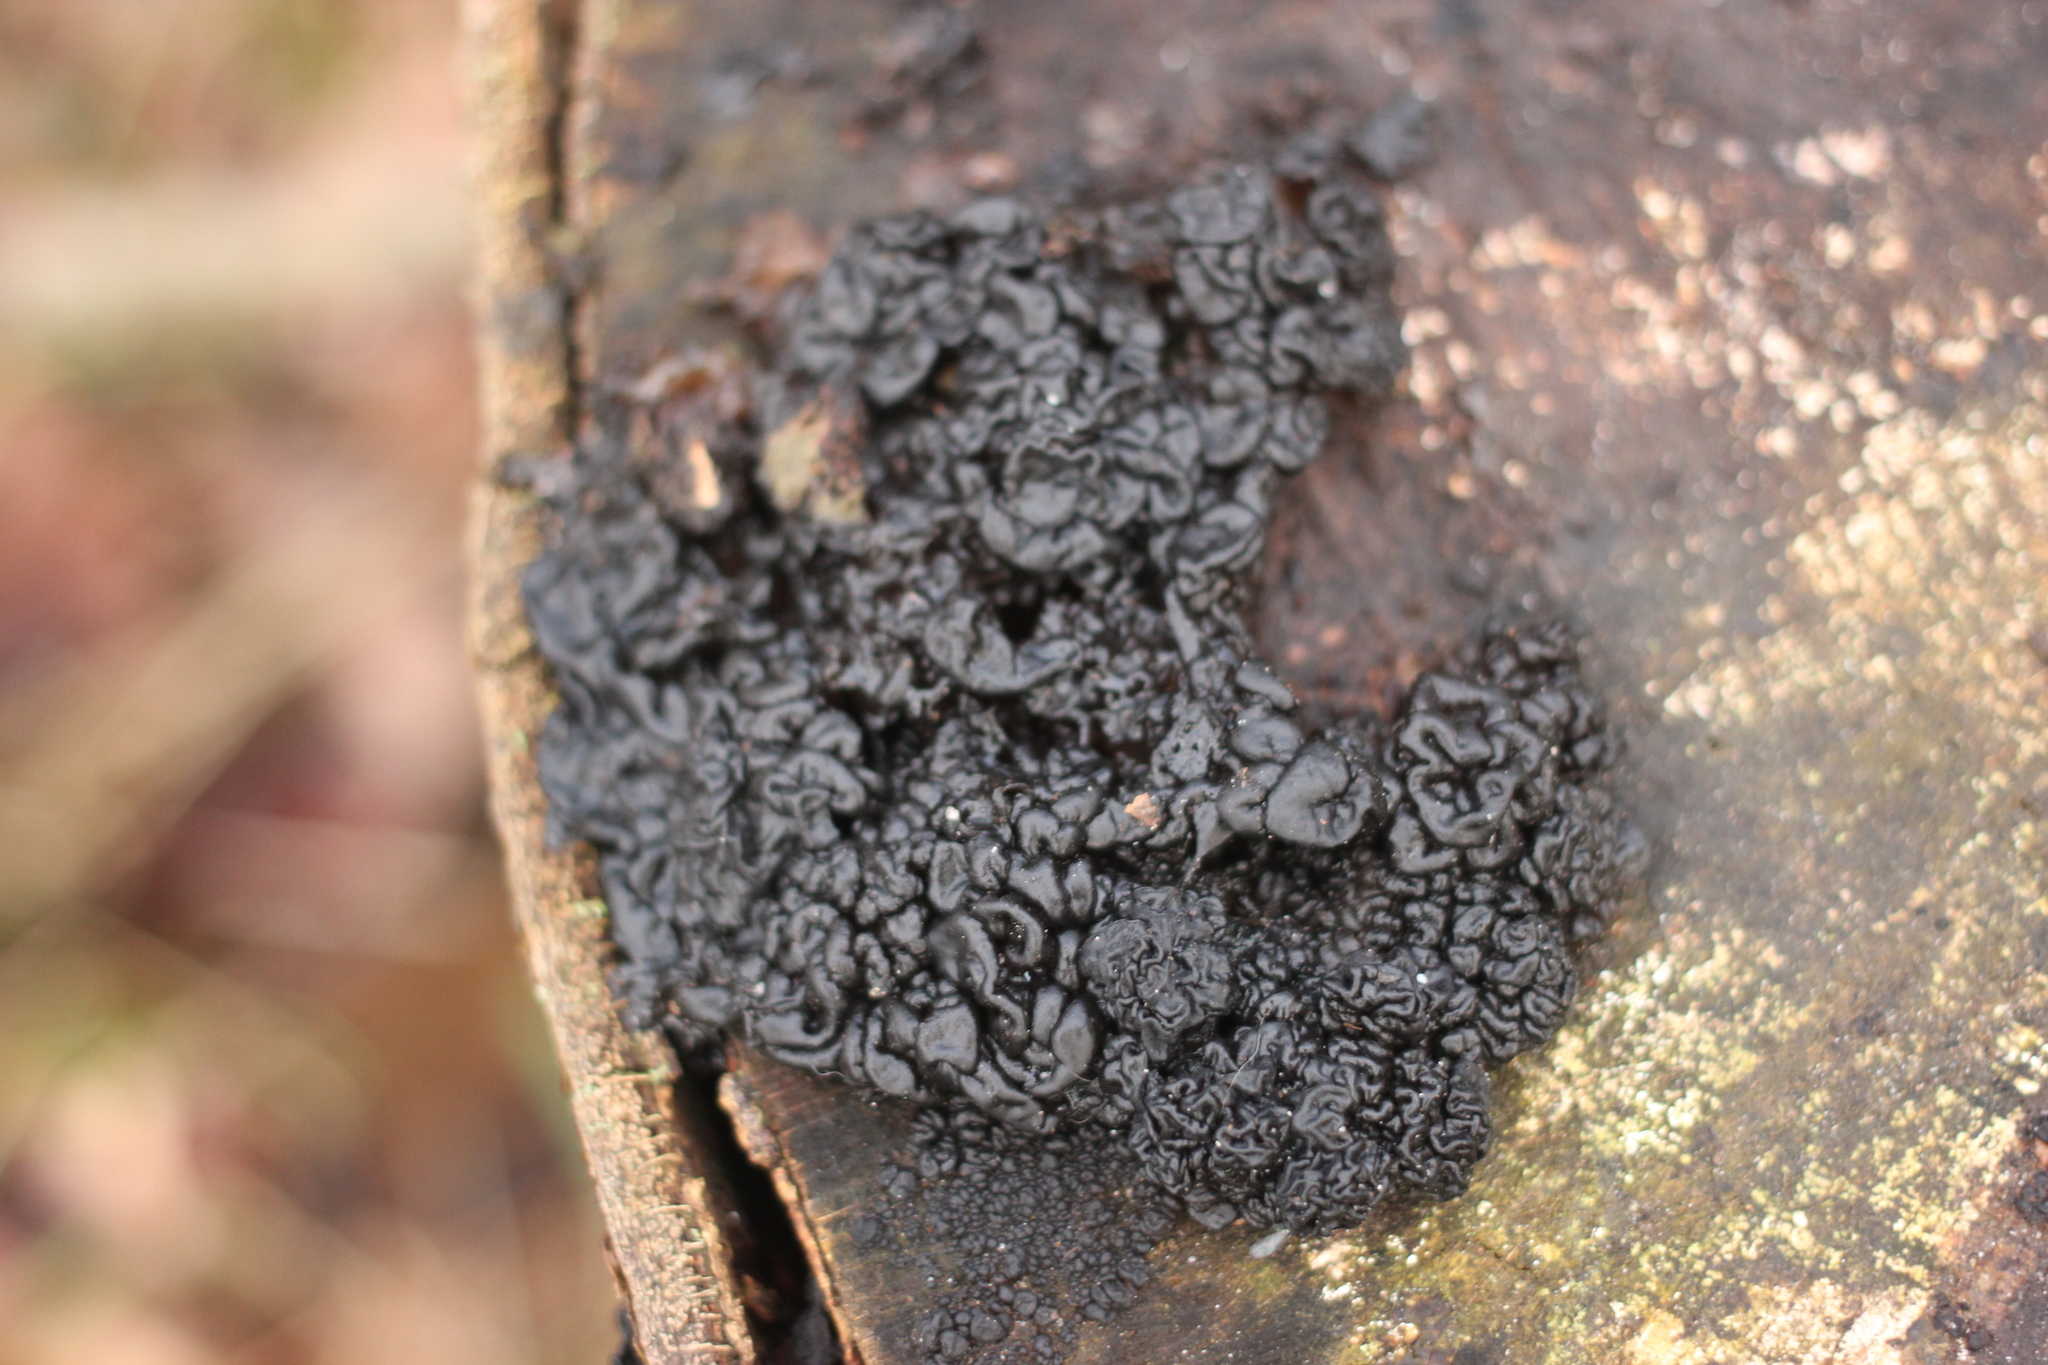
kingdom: Fungi
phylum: Basidiomycota
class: Agaricomycetes
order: Auriculariales
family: Auriculariaceae
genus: Exidia
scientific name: Exidia nigricans
